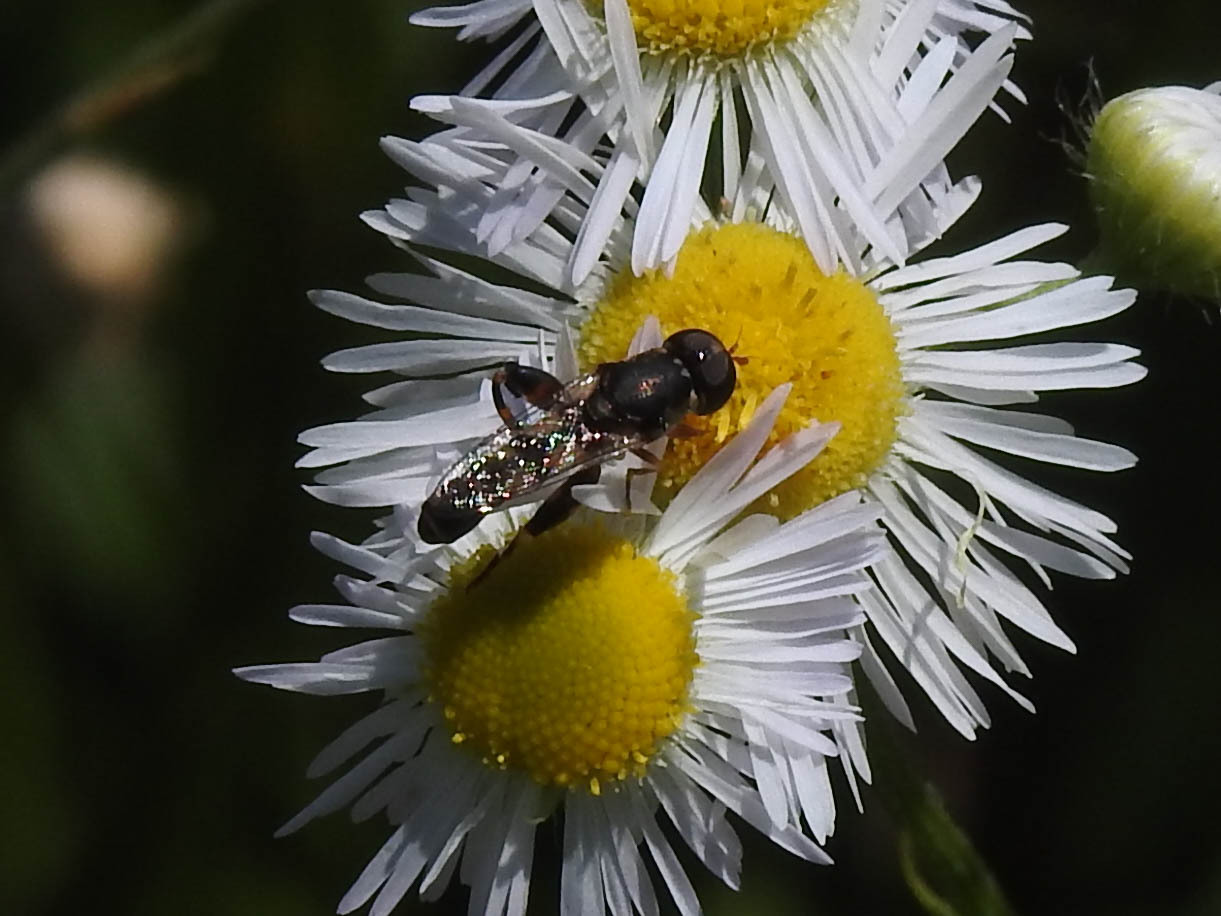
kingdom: Animalia
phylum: Arthropoda
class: Insecta
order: Diptera
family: Syrphidae
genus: Syritta
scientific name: Syritta pipiens
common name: Hover fly
